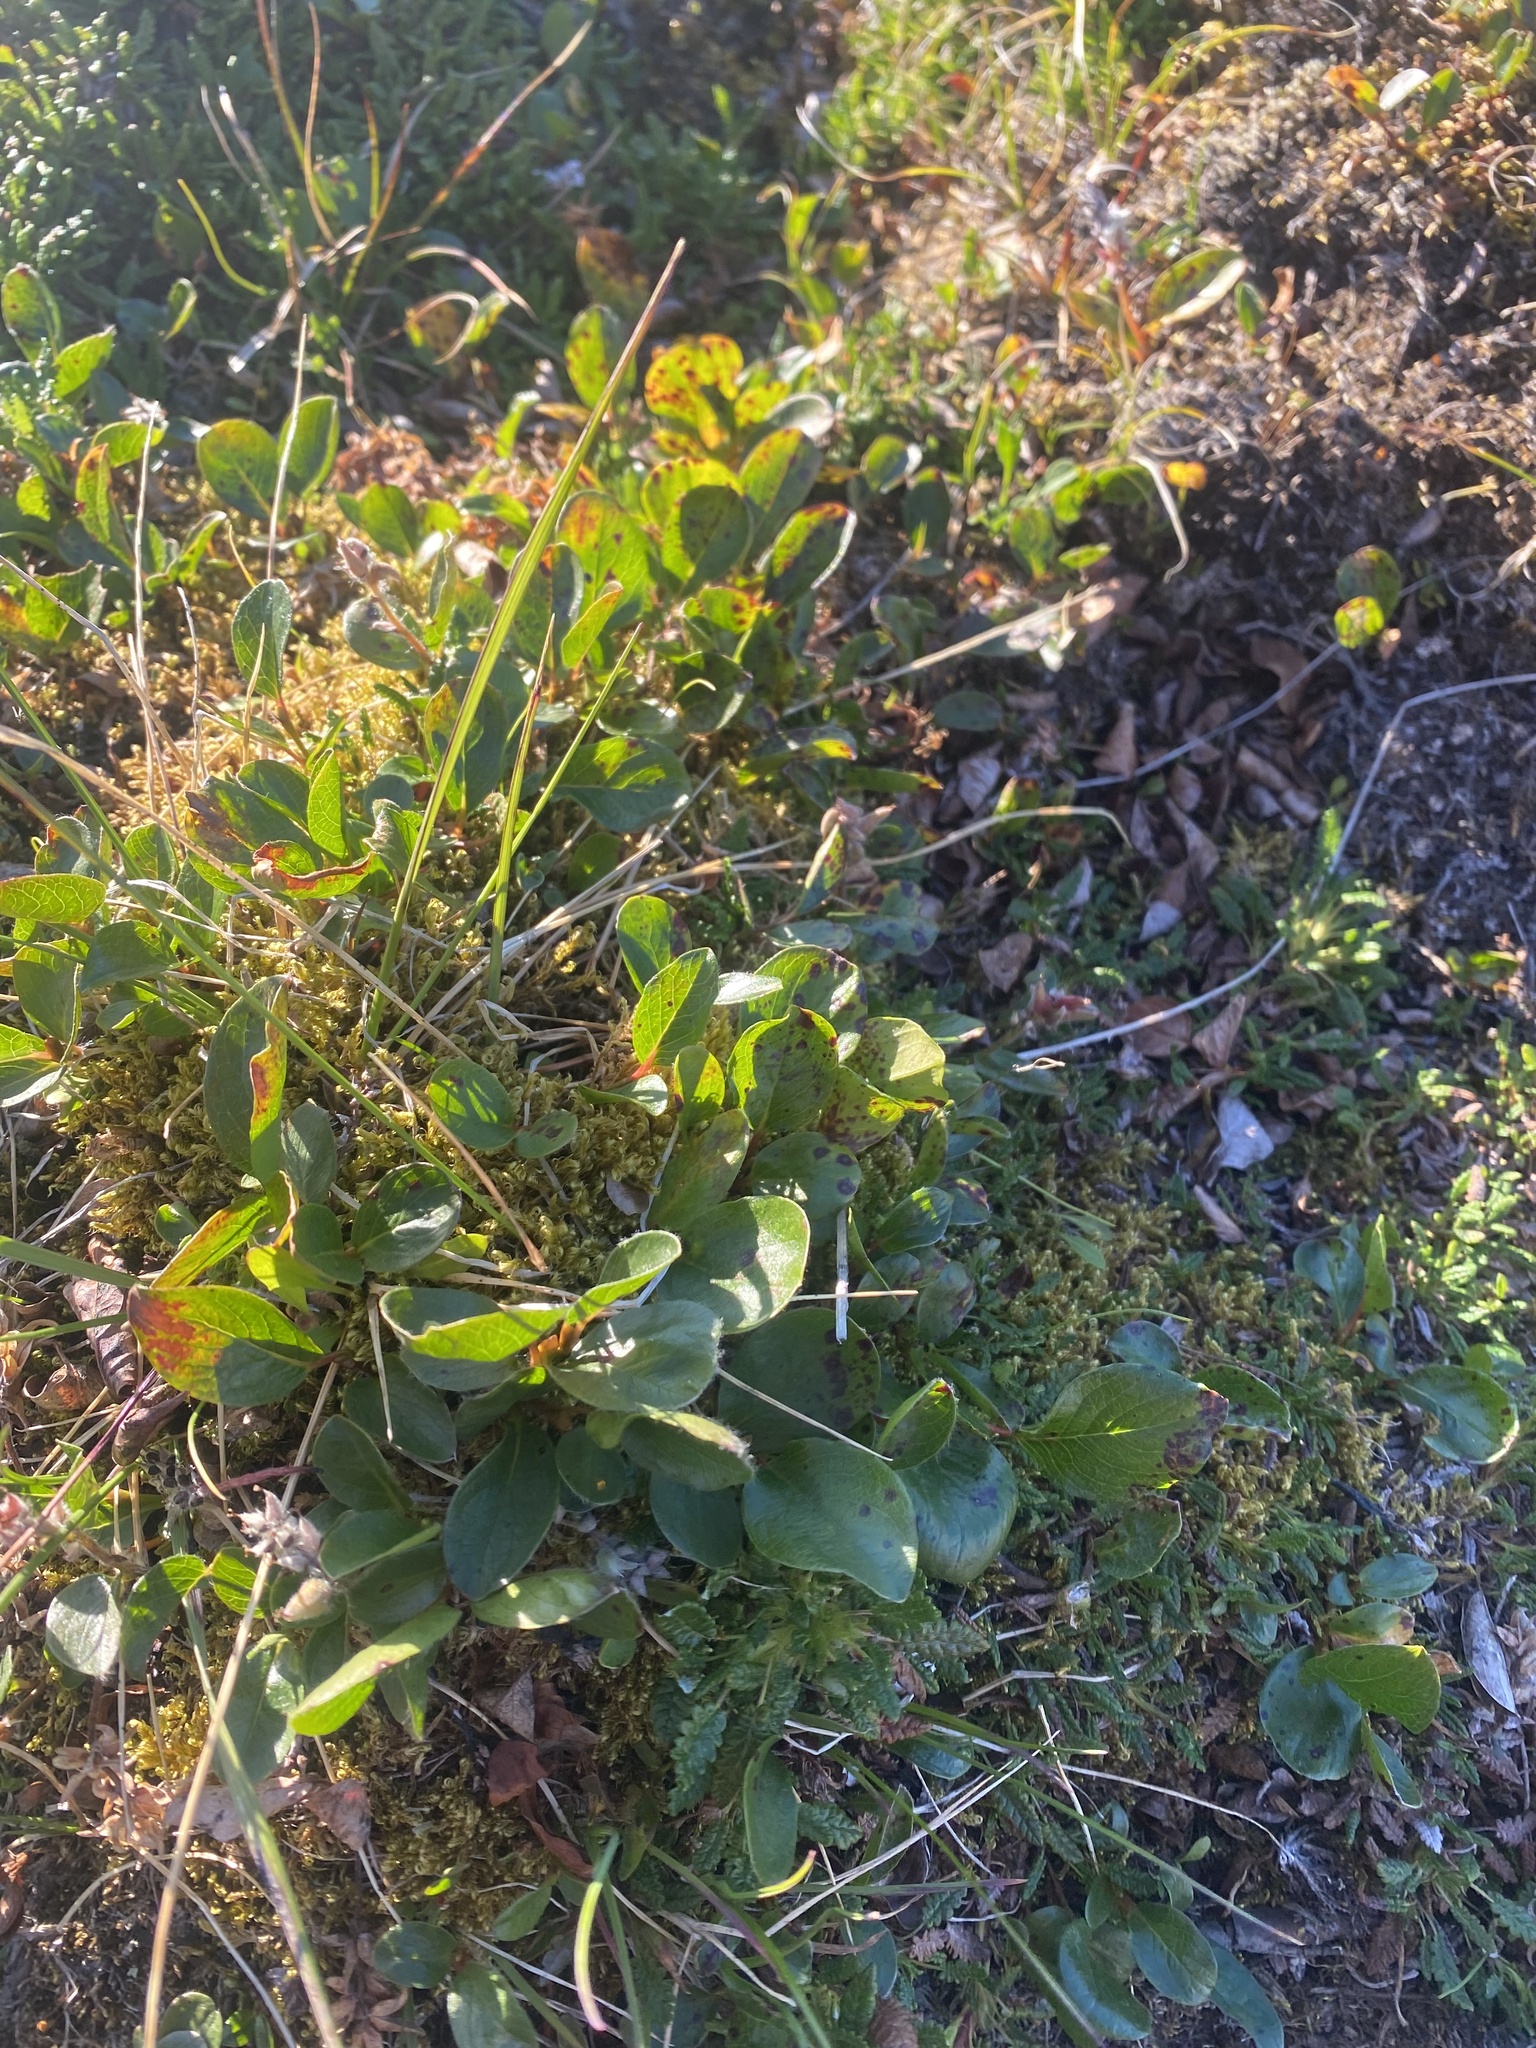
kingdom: Plantae
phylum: Tracheophyta
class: Magnoliopsida
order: Malpighiales
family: Salicaceae
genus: Salix
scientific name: Salix polaris
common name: Polar willow
